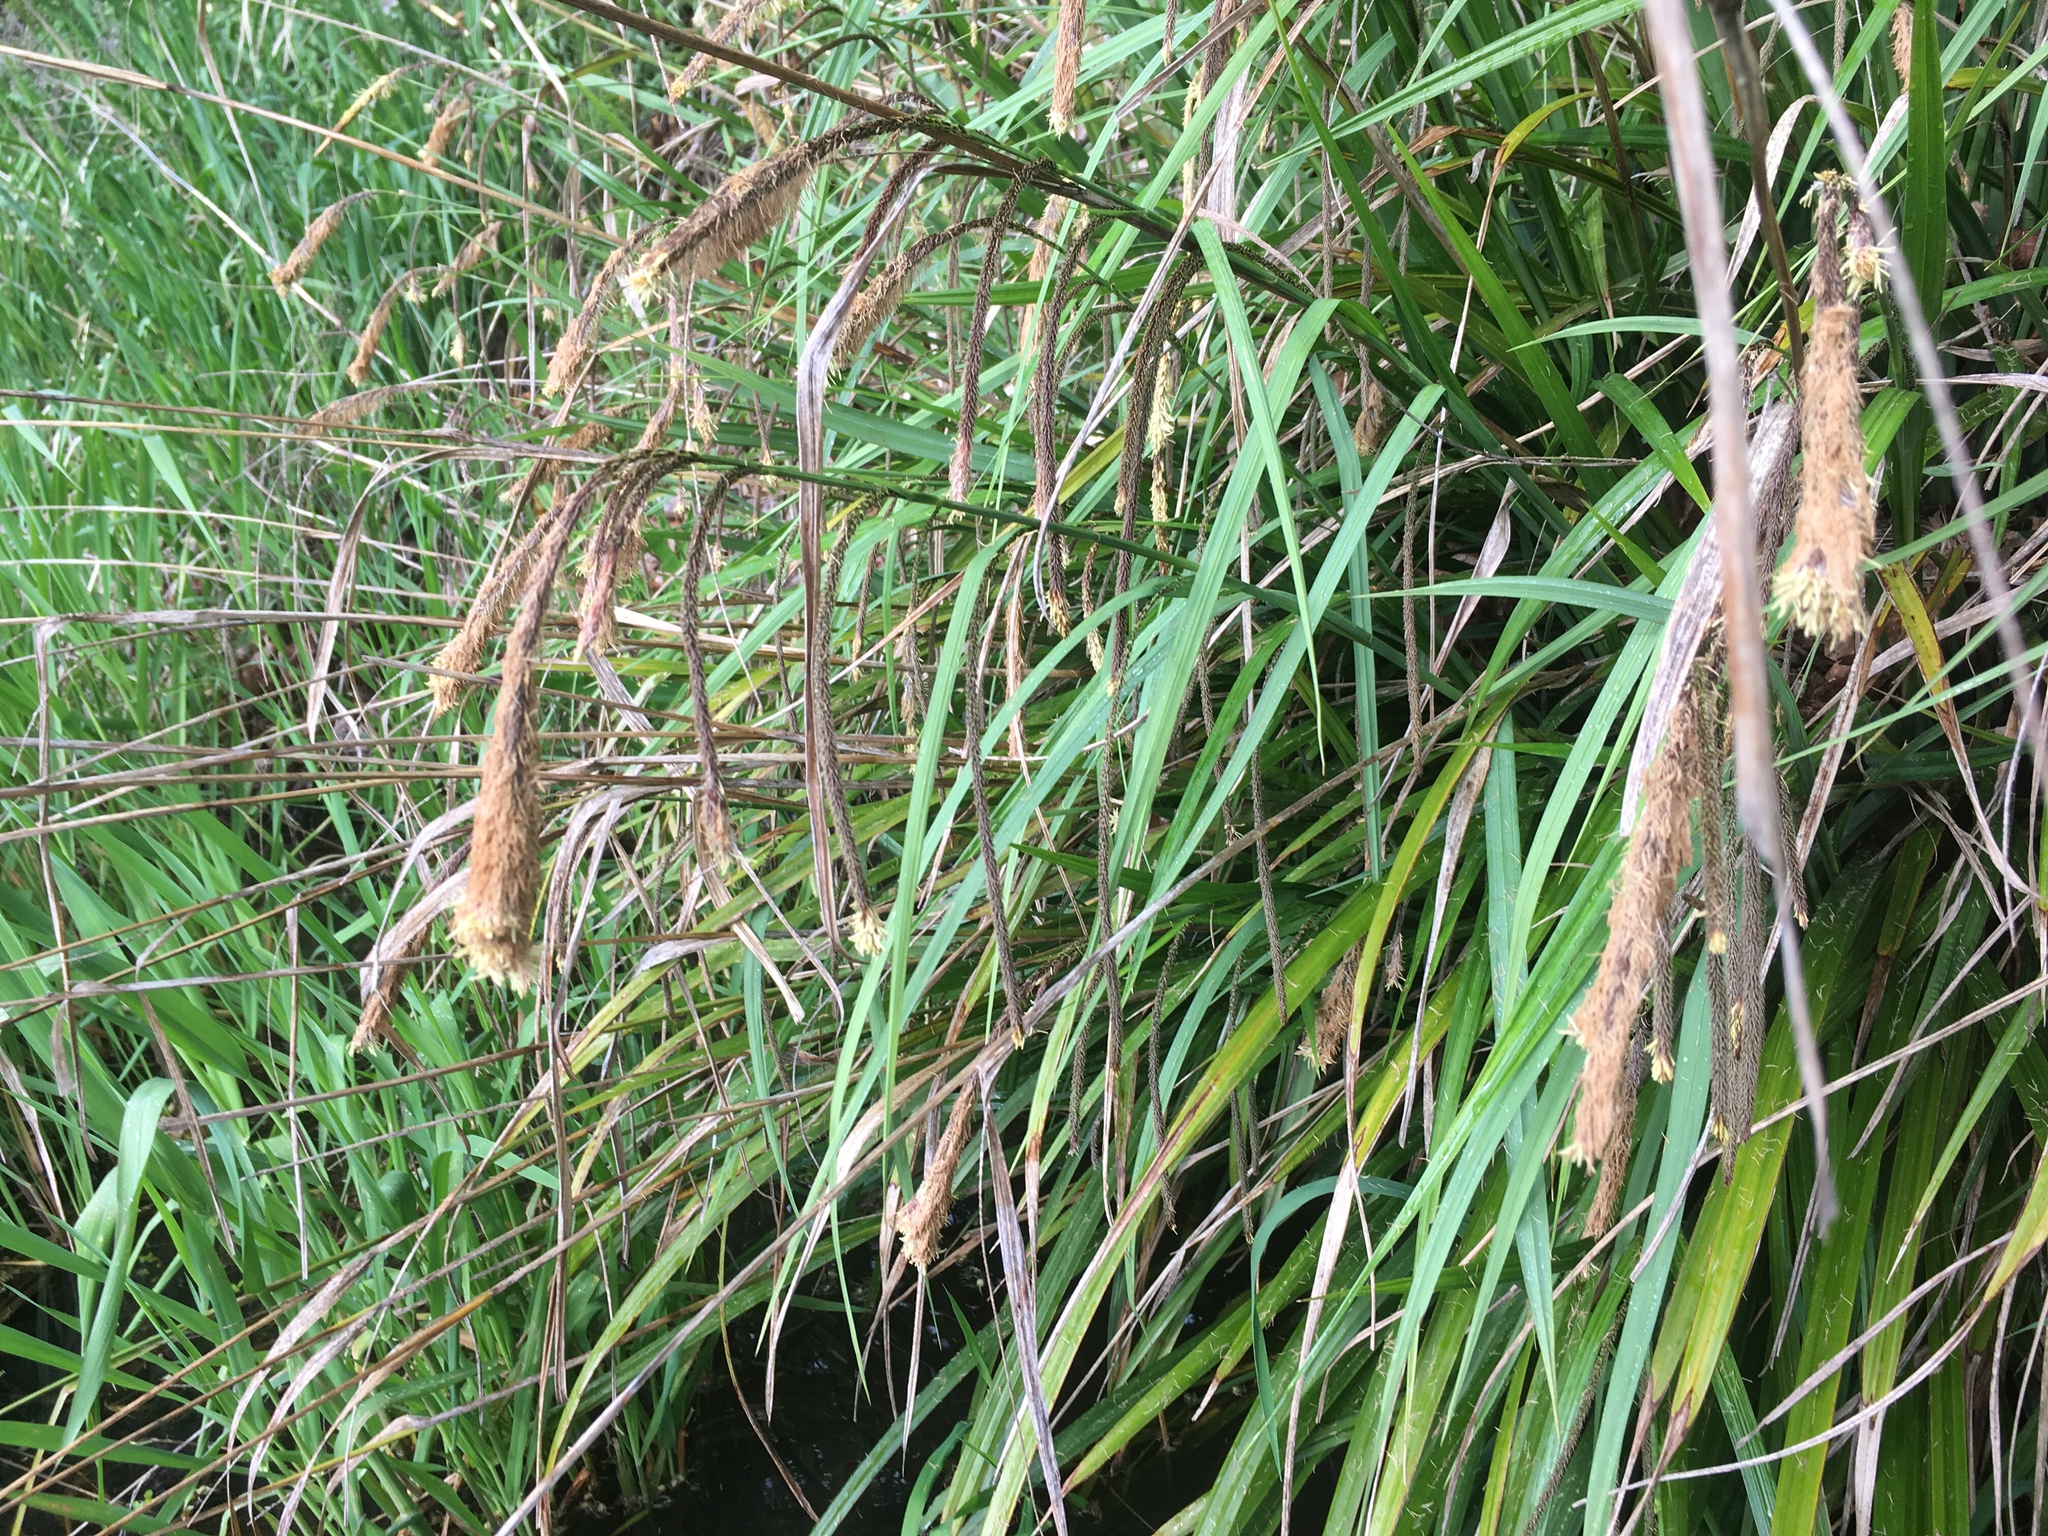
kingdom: Plantae
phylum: Tracheophyta
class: Liliopsida
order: Poales
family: Cyperaceae
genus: Carex
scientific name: Carex pendula
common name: Pendulous sedge
